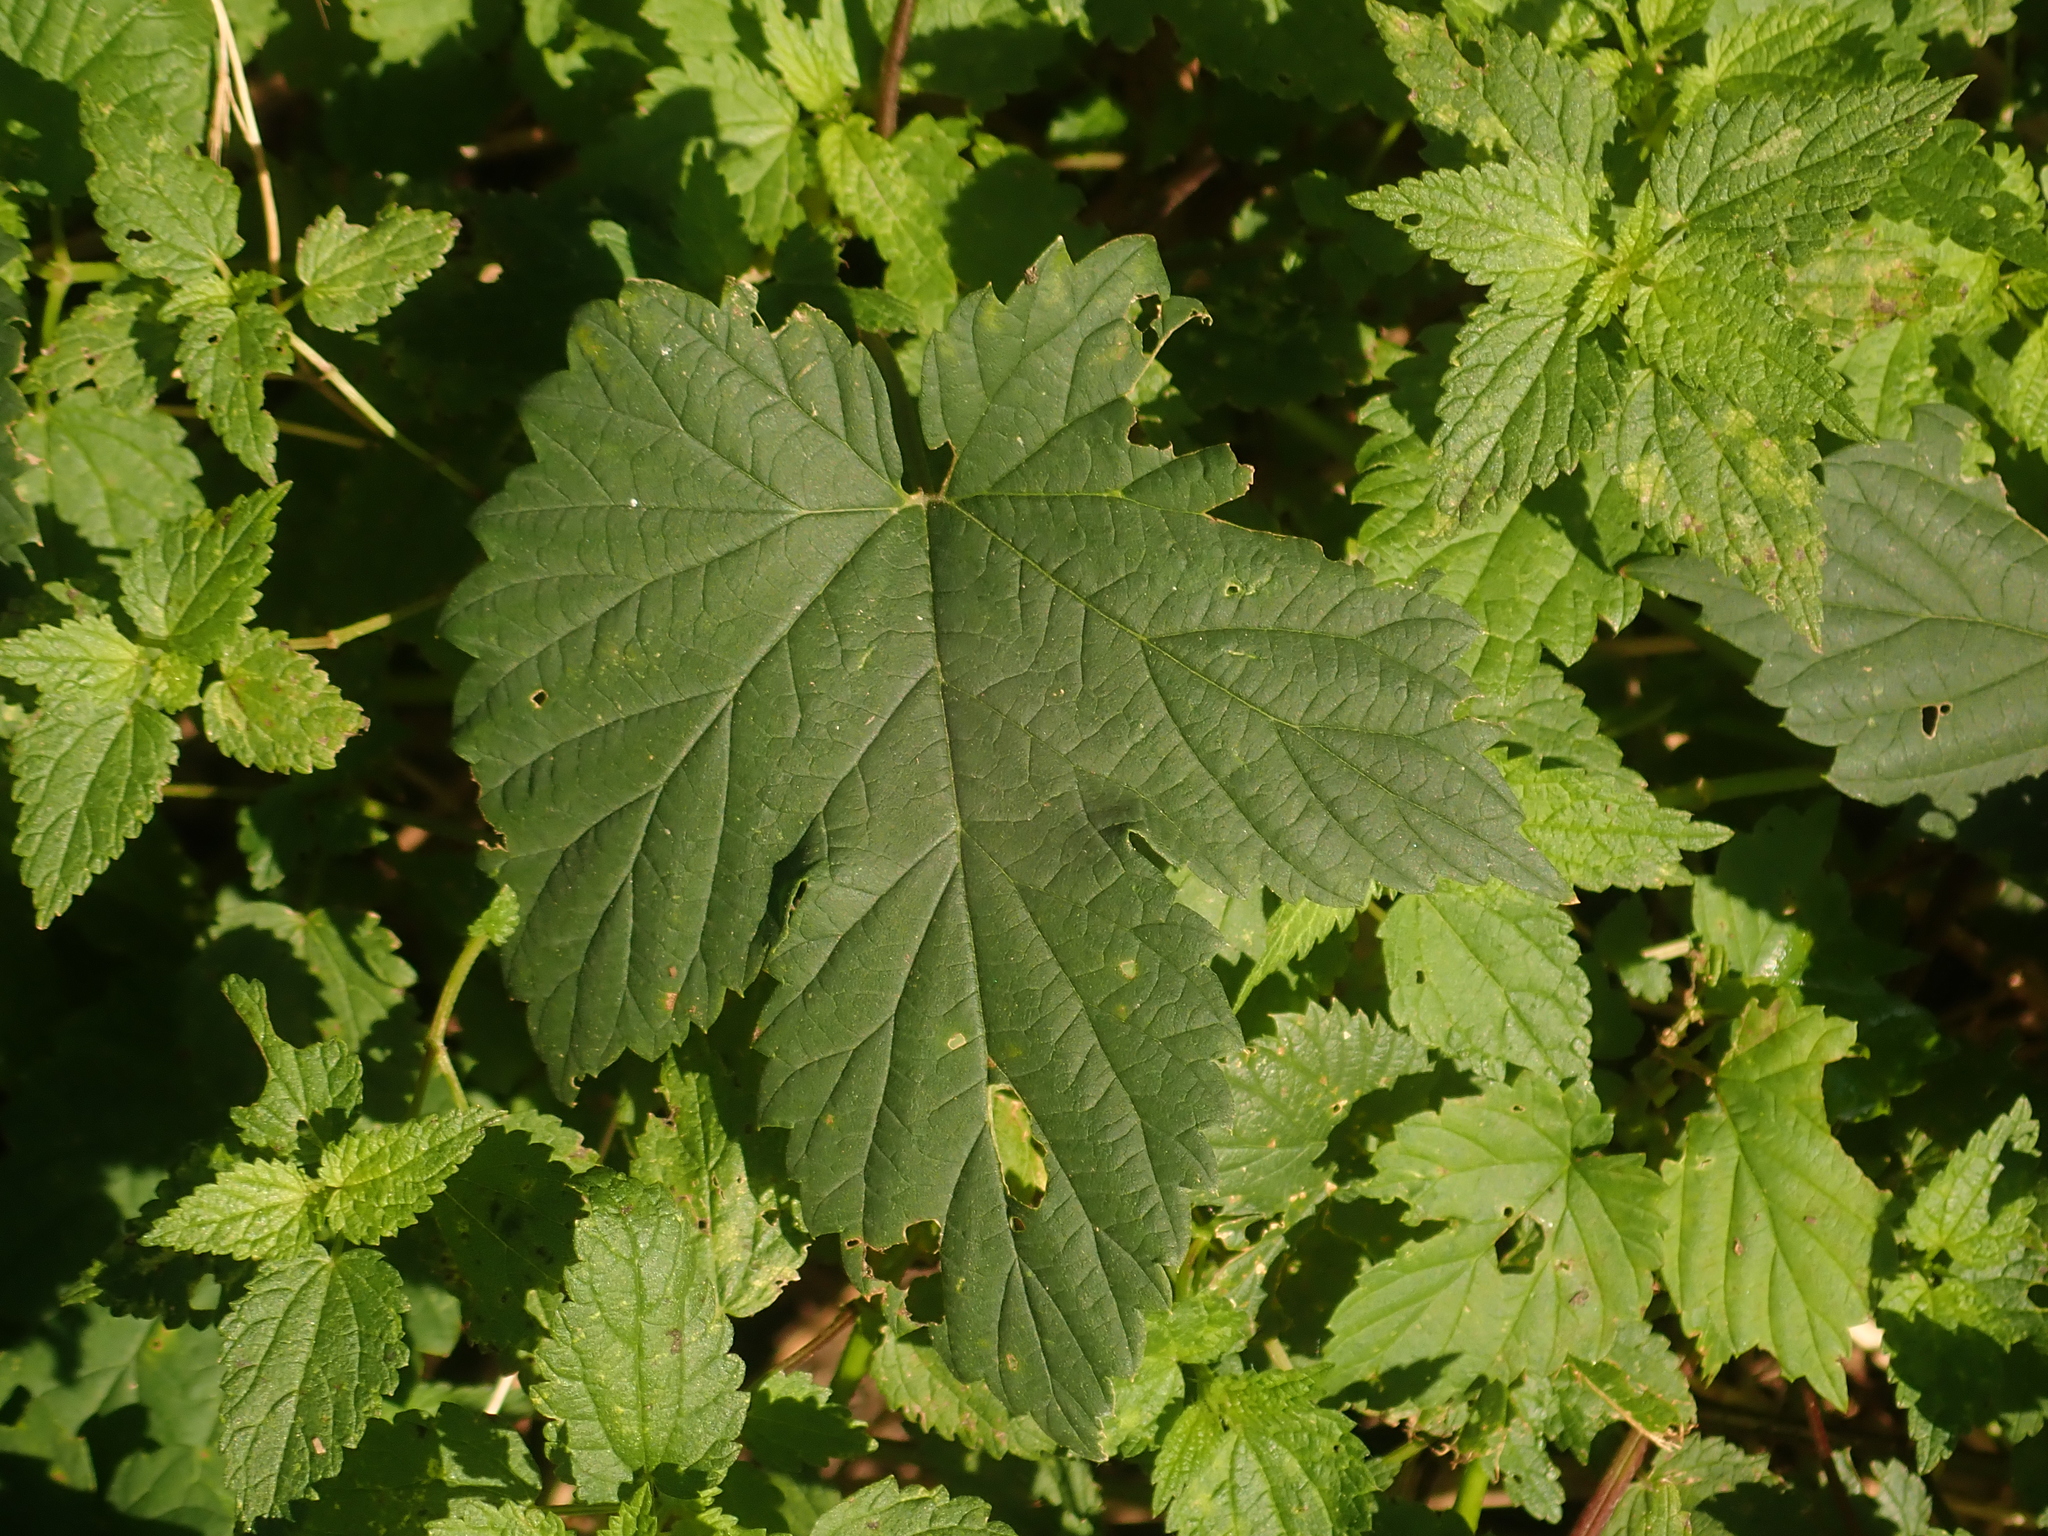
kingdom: Plantae
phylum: Tracheophyta
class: Magnoliopsida
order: Rosales
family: Cannabaceae
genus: Humulus
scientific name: Humulus lupulus
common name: Hop
